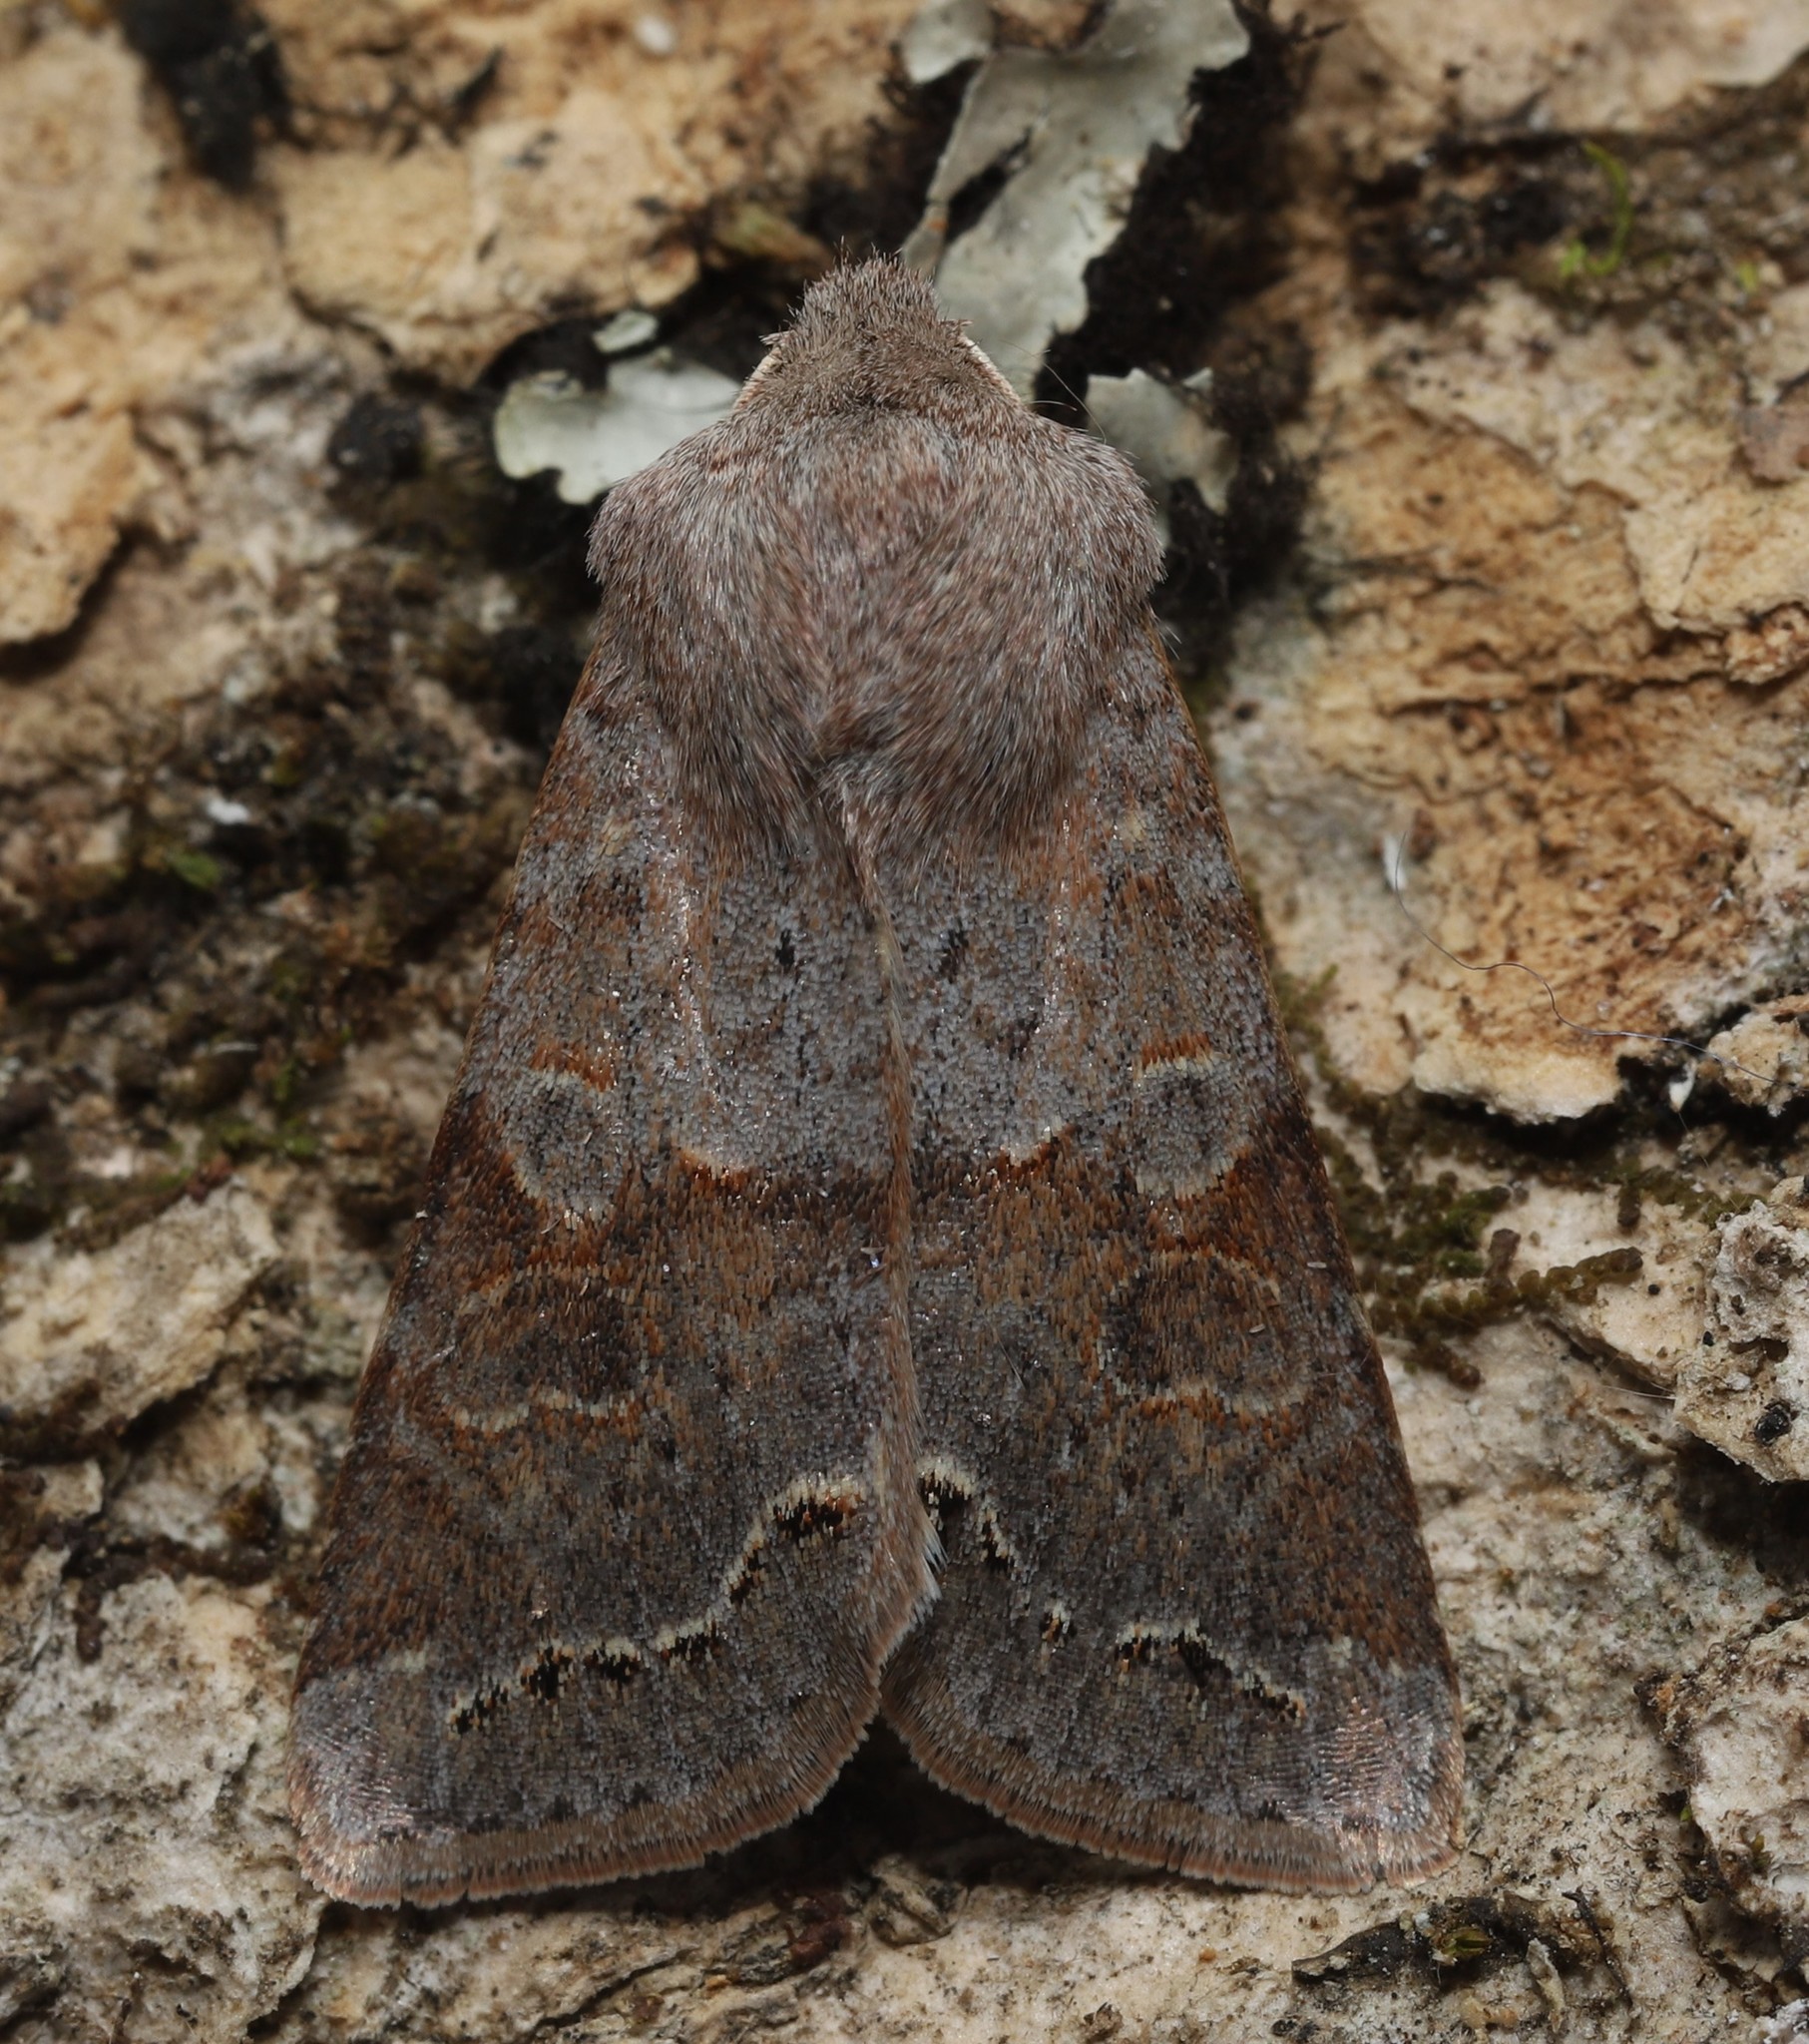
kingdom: Animalia
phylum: Arthropoda
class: Insecta
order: Lepidoptera
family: Noctuidae
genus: Orthosia
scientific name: Orthosia revicta
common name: Rusty whitesided caterpillar
